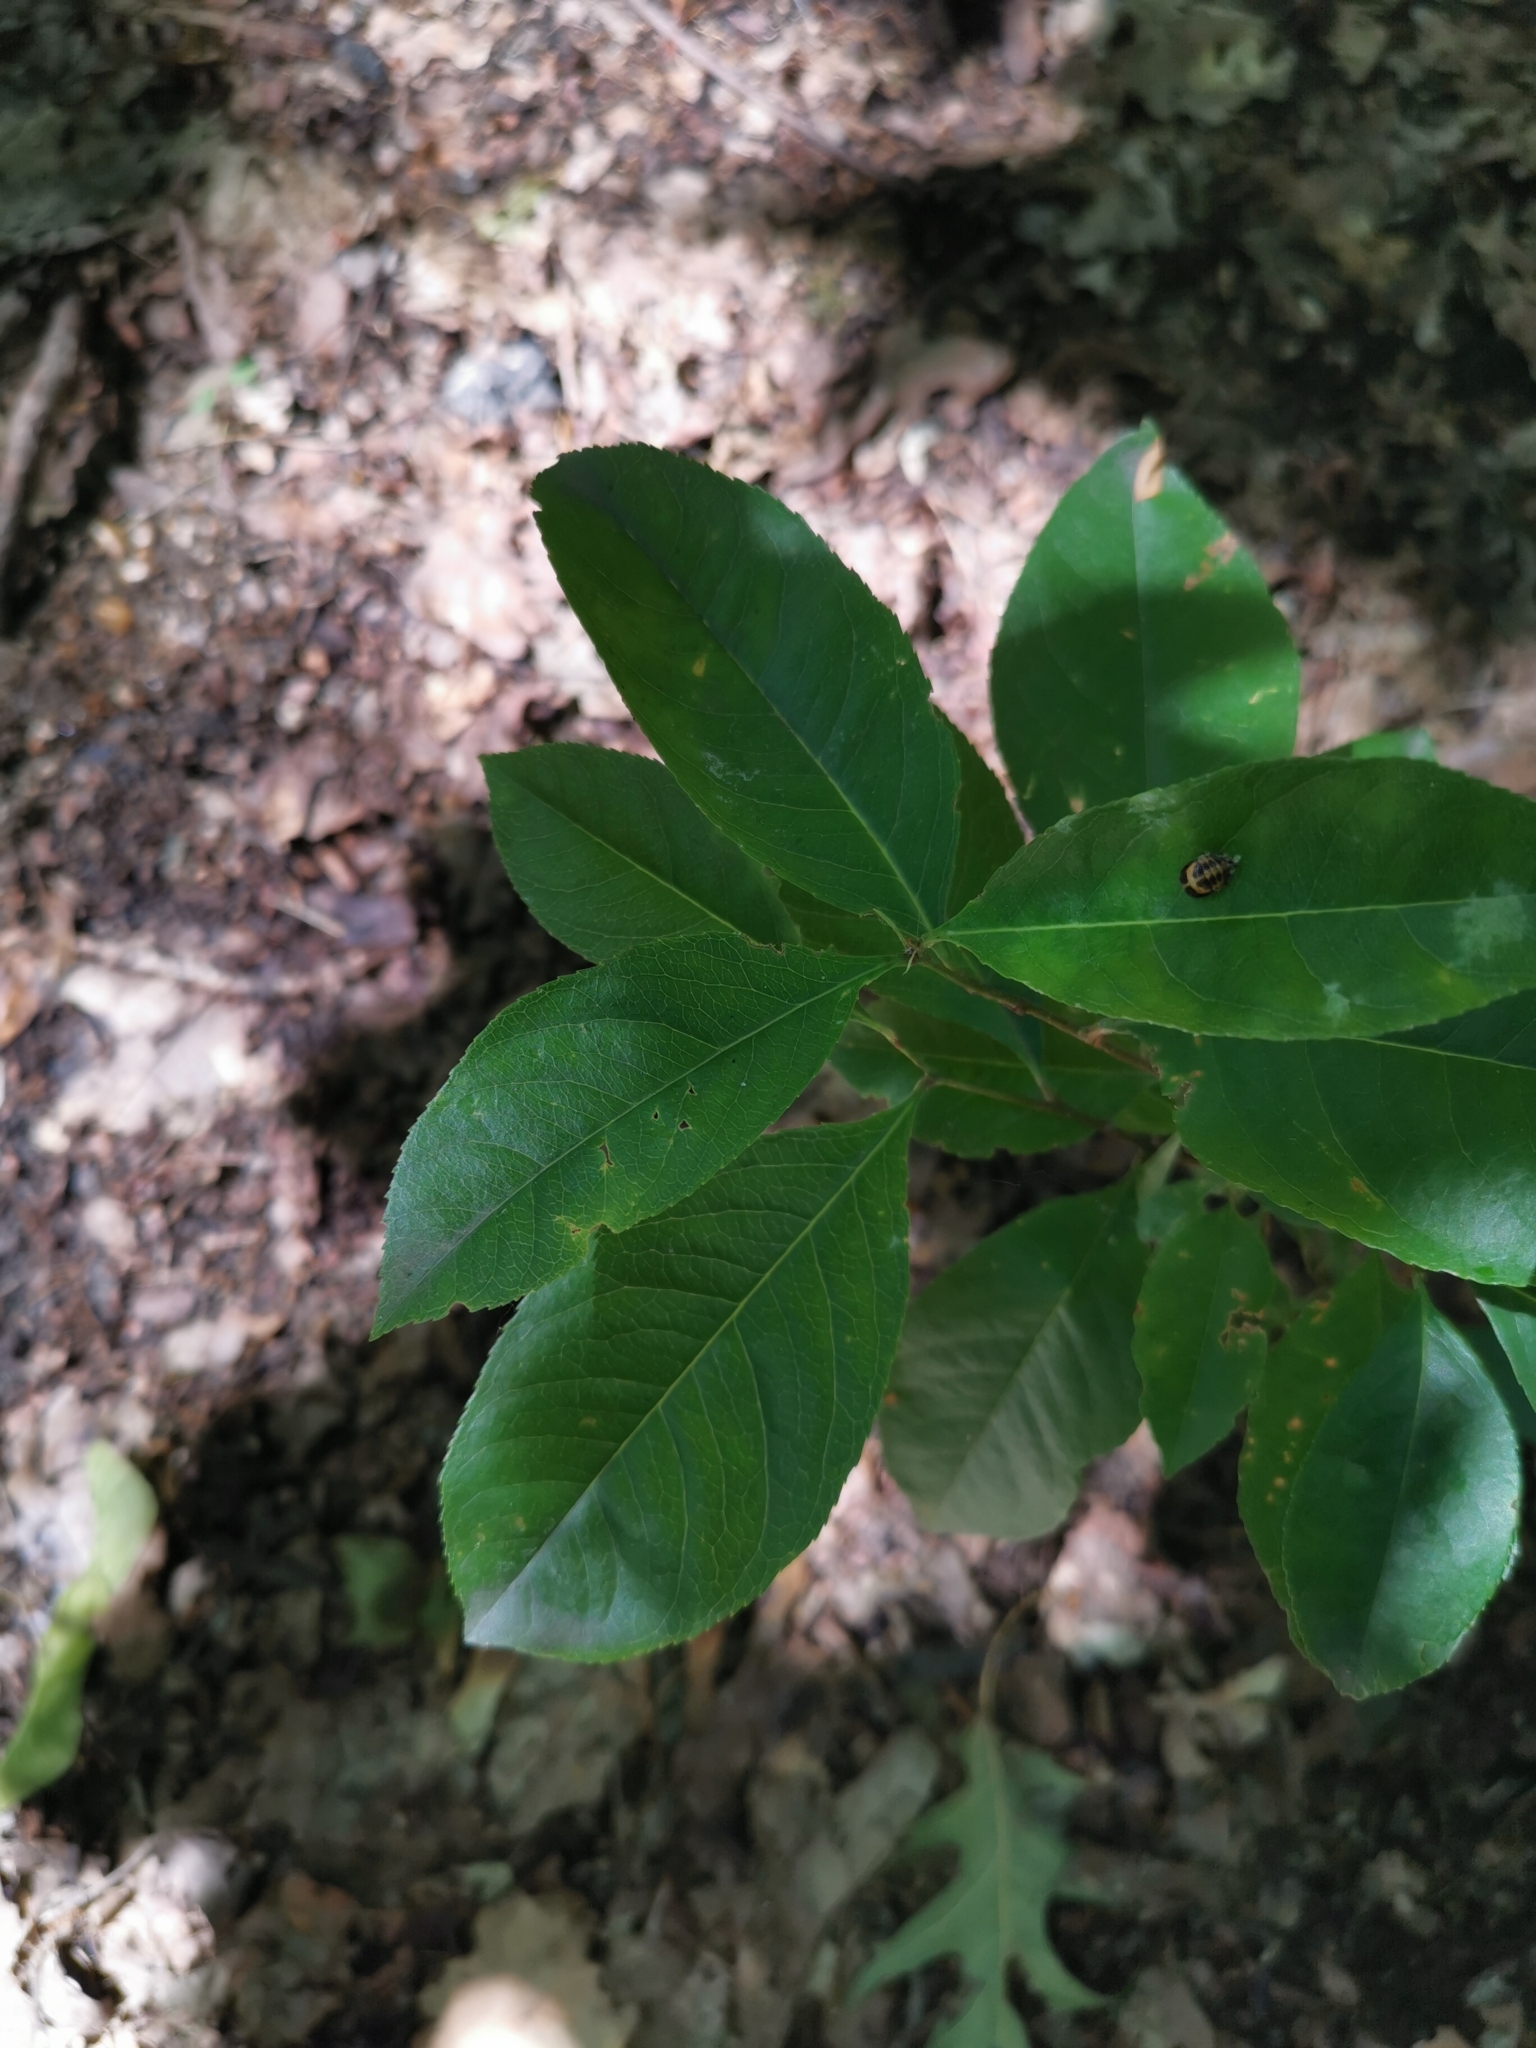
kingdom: Plantae
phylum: Tracheophyta
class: Magnoliopsida
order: Rosales
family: Rosaceae
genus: Prunus
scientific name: Prunus serotina
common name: Black cherry
